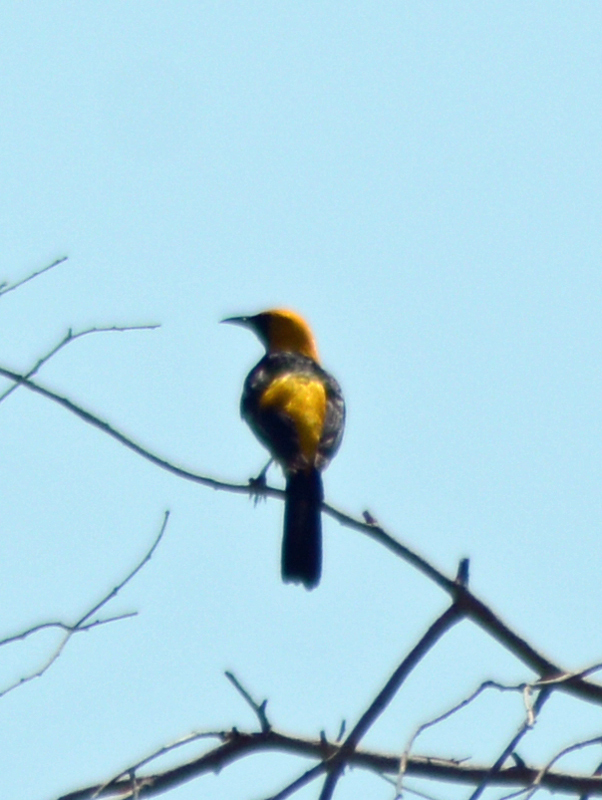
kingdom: Animalia
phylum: Chordata
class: Aves
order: Passeriformes
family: Icteridae
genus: Icterus
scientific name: Icterus cucullatus
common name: Hooded oriole
